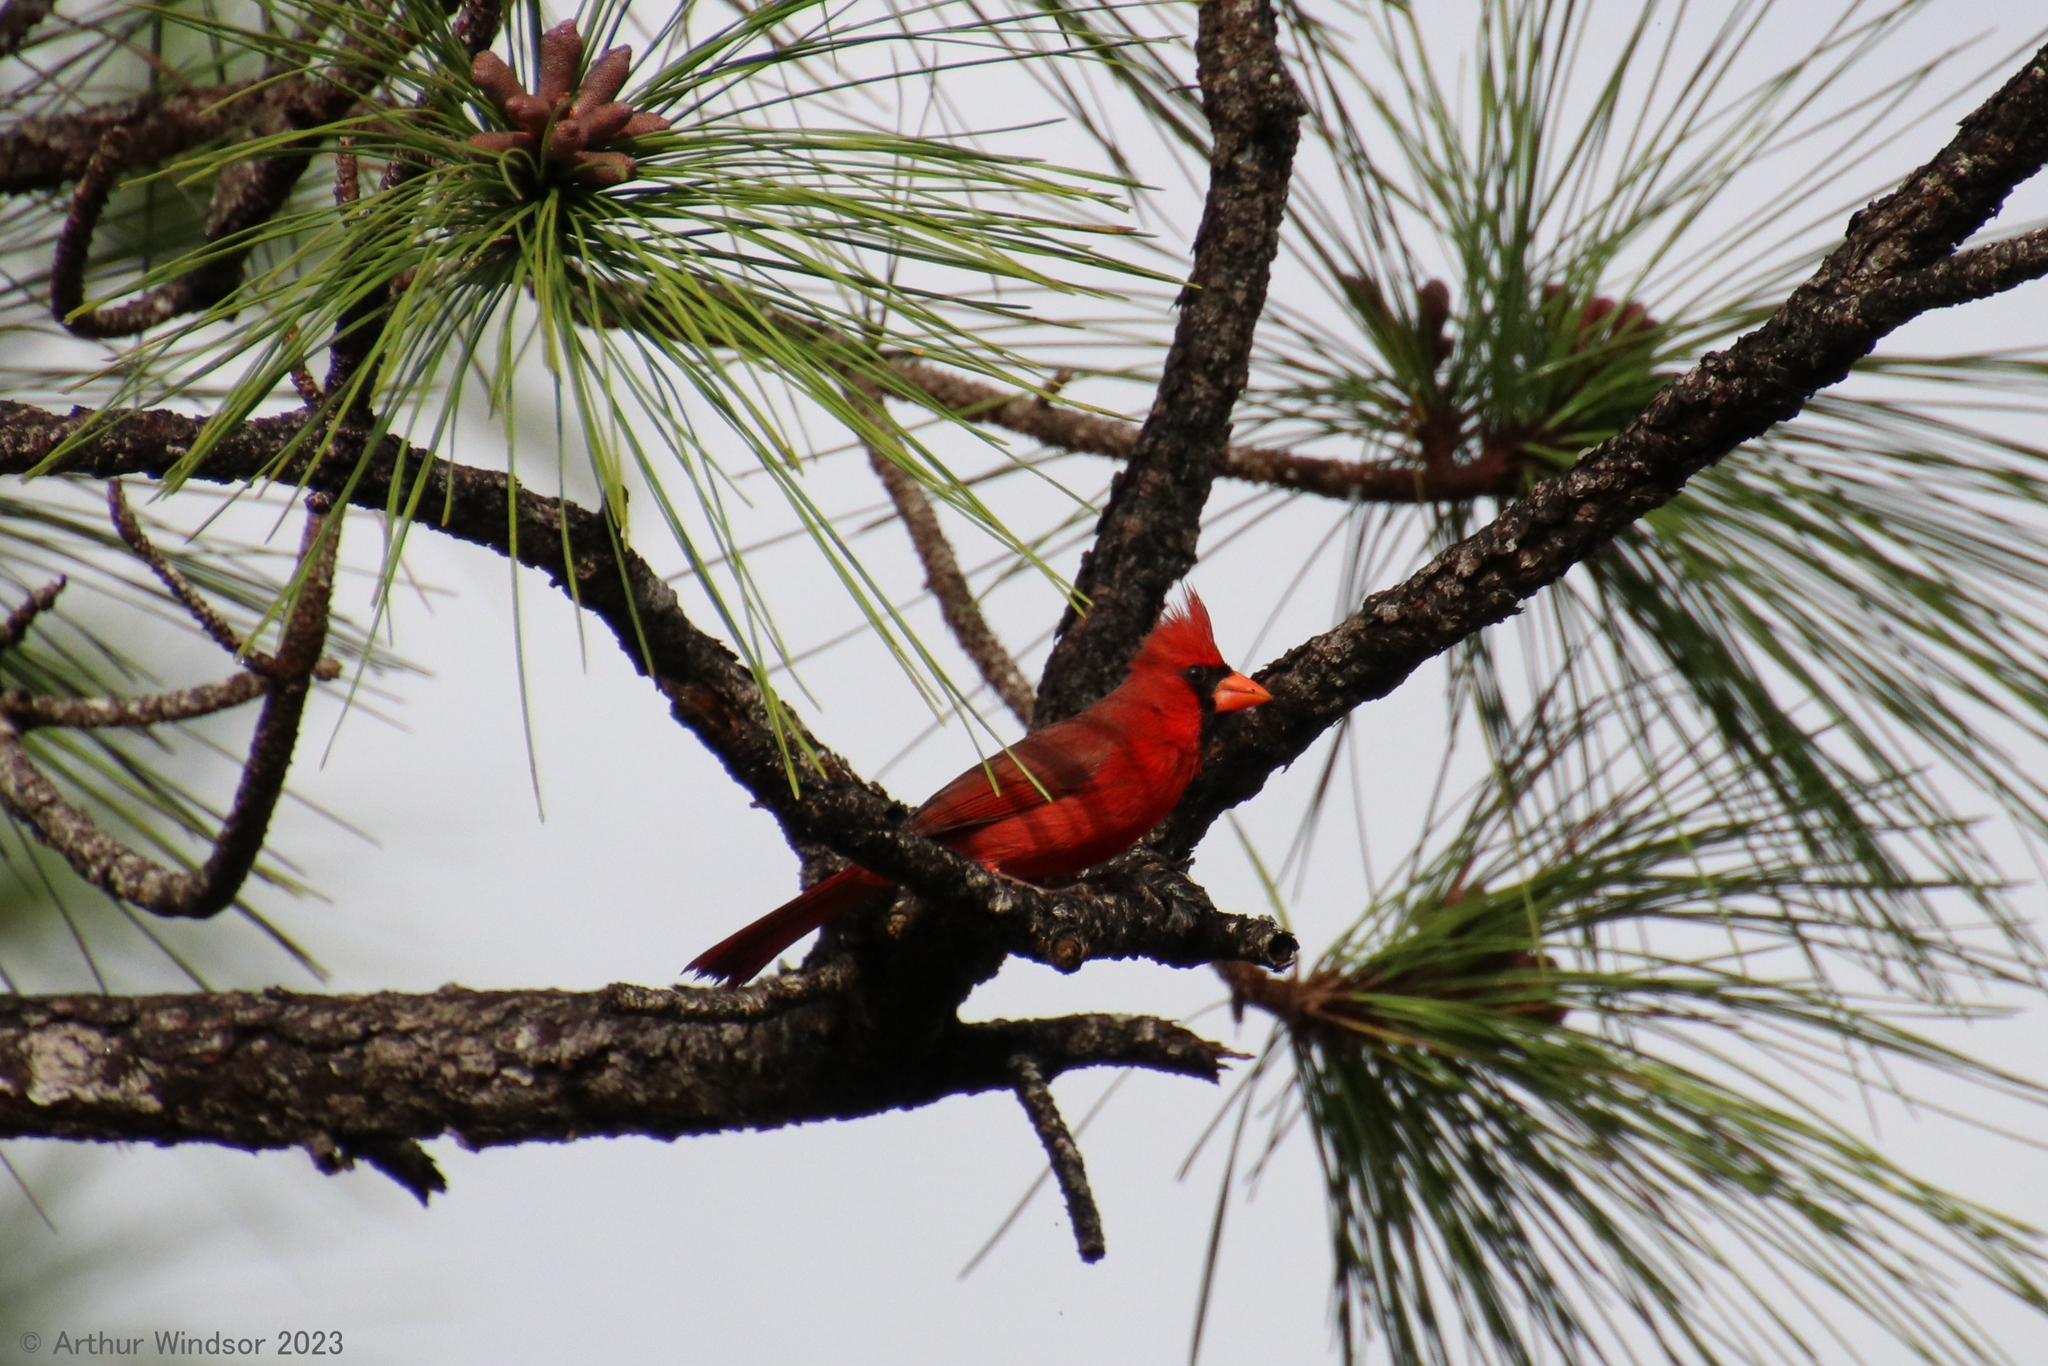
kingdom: Animalia
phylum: Chordata
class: Aves
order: Passeriformes
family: Cardinalidae
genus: Cardinalis
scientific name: Cardinalis cardinalis
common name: Northern cardinal
